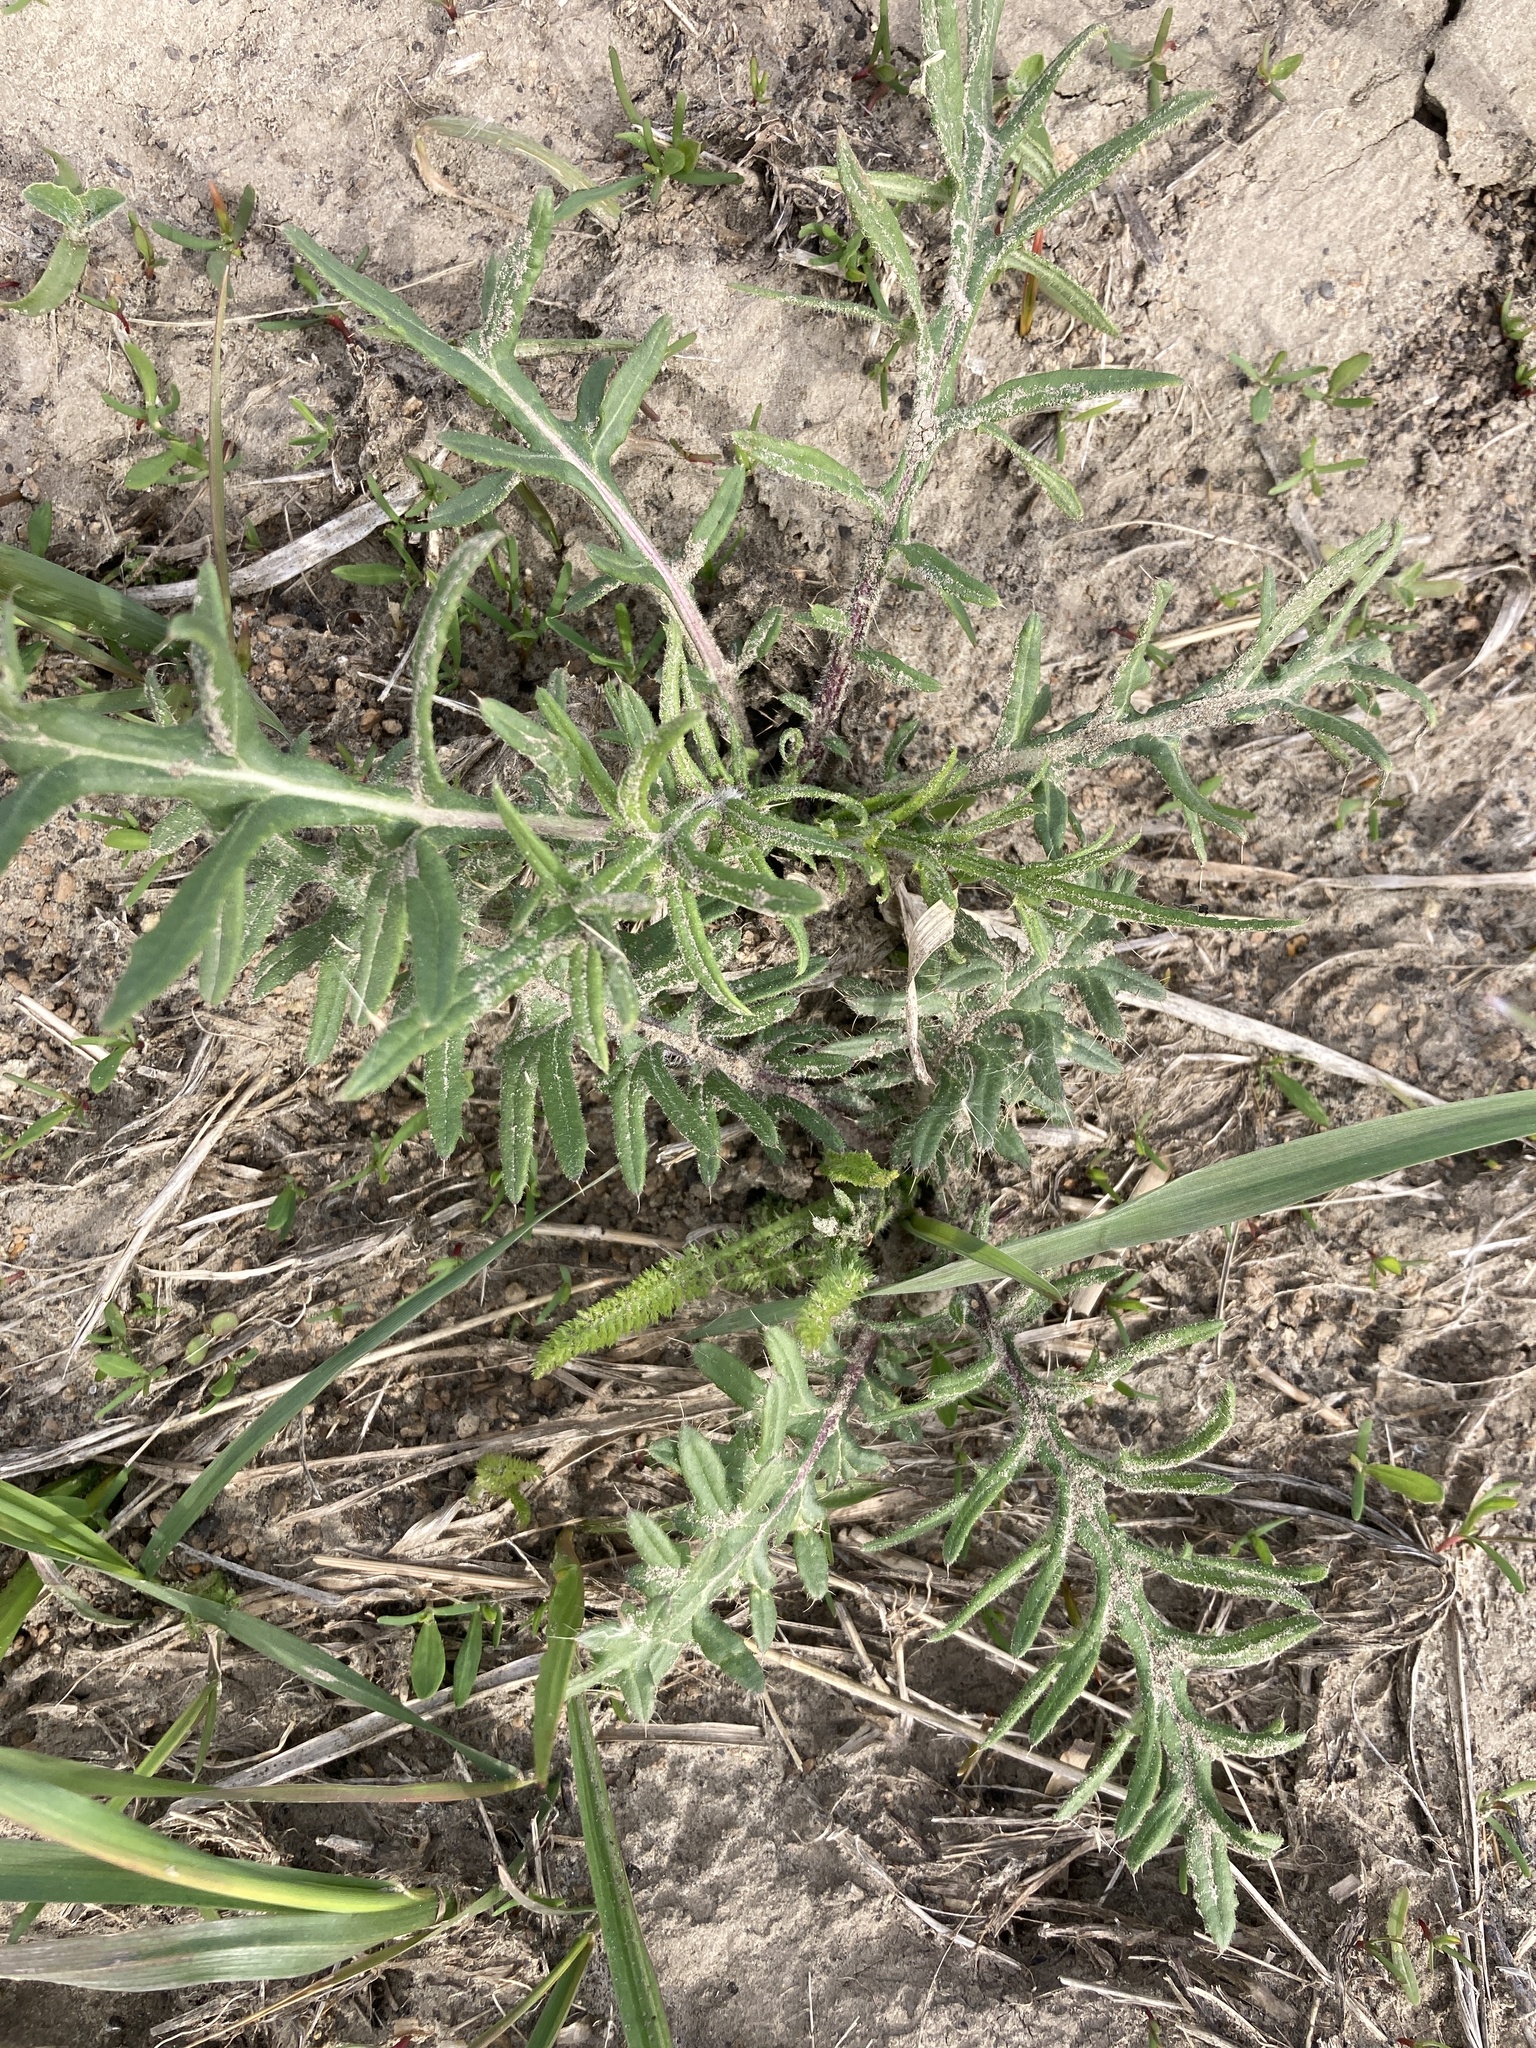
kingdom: Plantae
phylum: Tracheophyta
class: Magnoliopsida
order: Asterales
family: Asteraceae
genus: Cirsium
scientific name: Cirsium serrulatum
